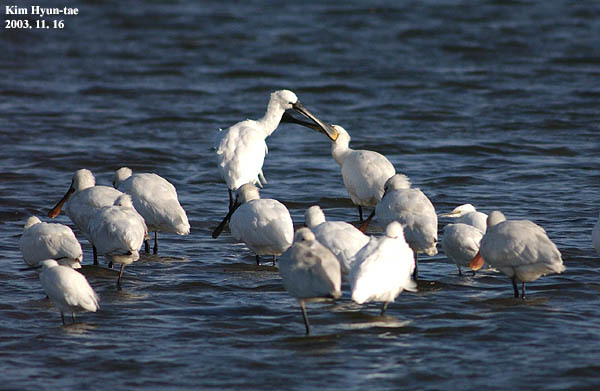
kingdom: Animalia
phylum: Chordata
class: Aves
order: Pelecaniformes
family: Threskiornithidae
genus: Platalea
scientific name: Platalea leucorodia
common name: Eurasian spoonbill
